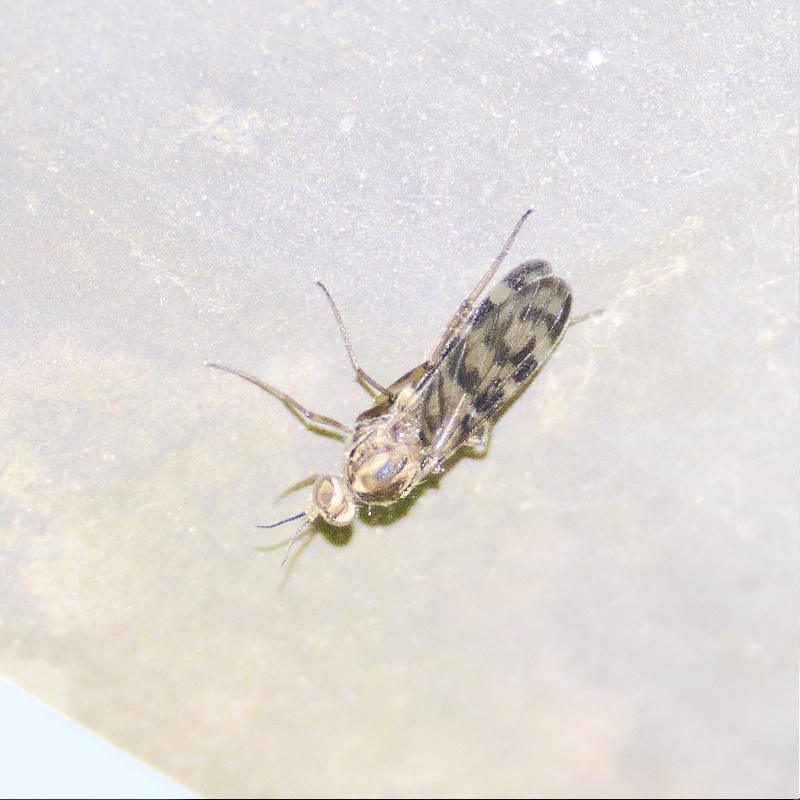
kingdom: Animalia
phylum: Arthropoda
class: Insecta
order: Diptera
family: Anisopodidae
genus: Sylvicola
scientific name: Sylvicola dubius
